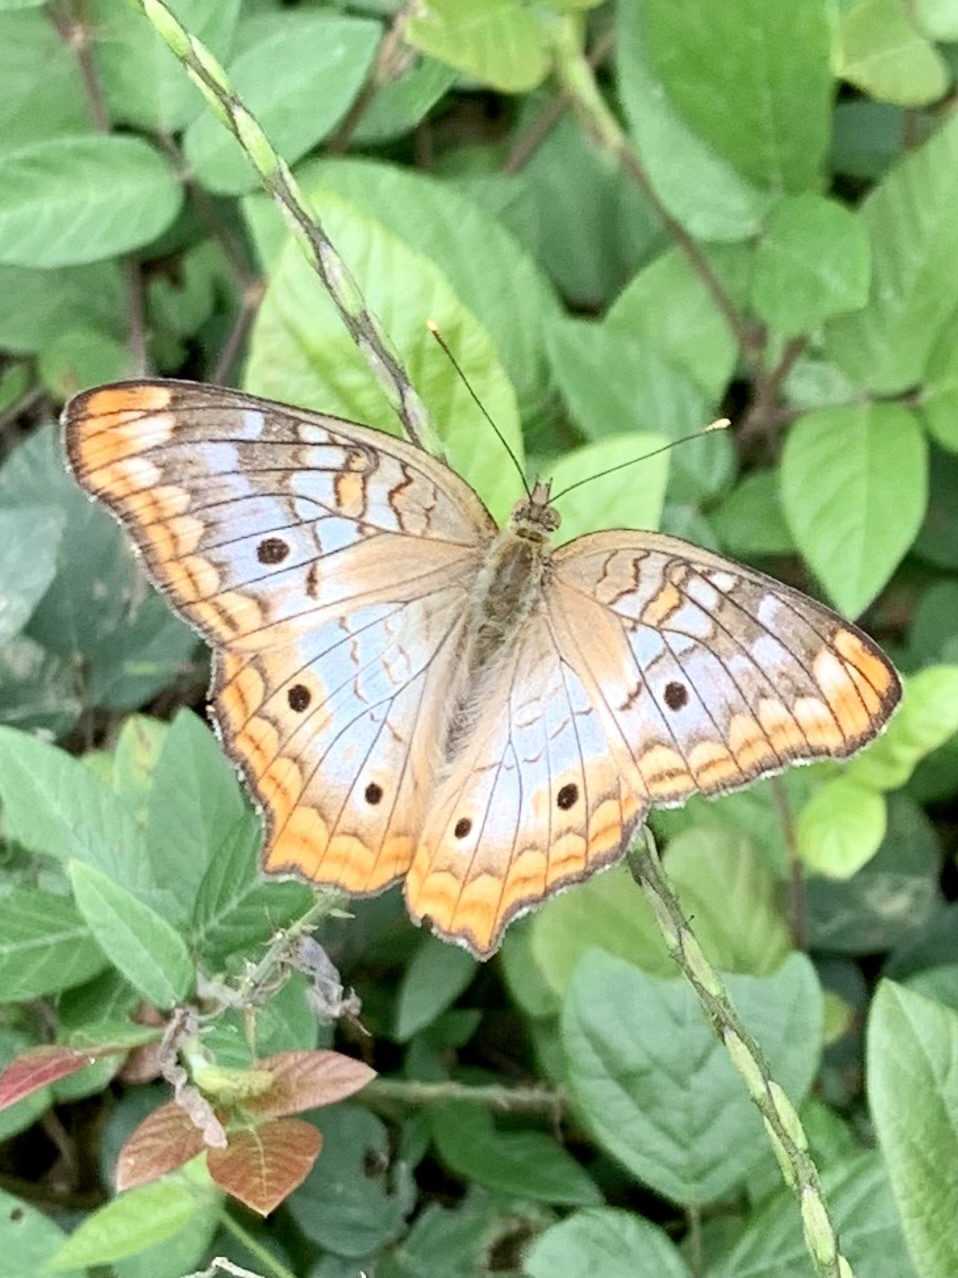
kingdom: Animalia
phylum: Arthropoda
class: Insecta
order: Lepidoptera
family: Nymphalidae
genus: Anartia
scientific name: Anartia jatrophae
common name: White peacock
